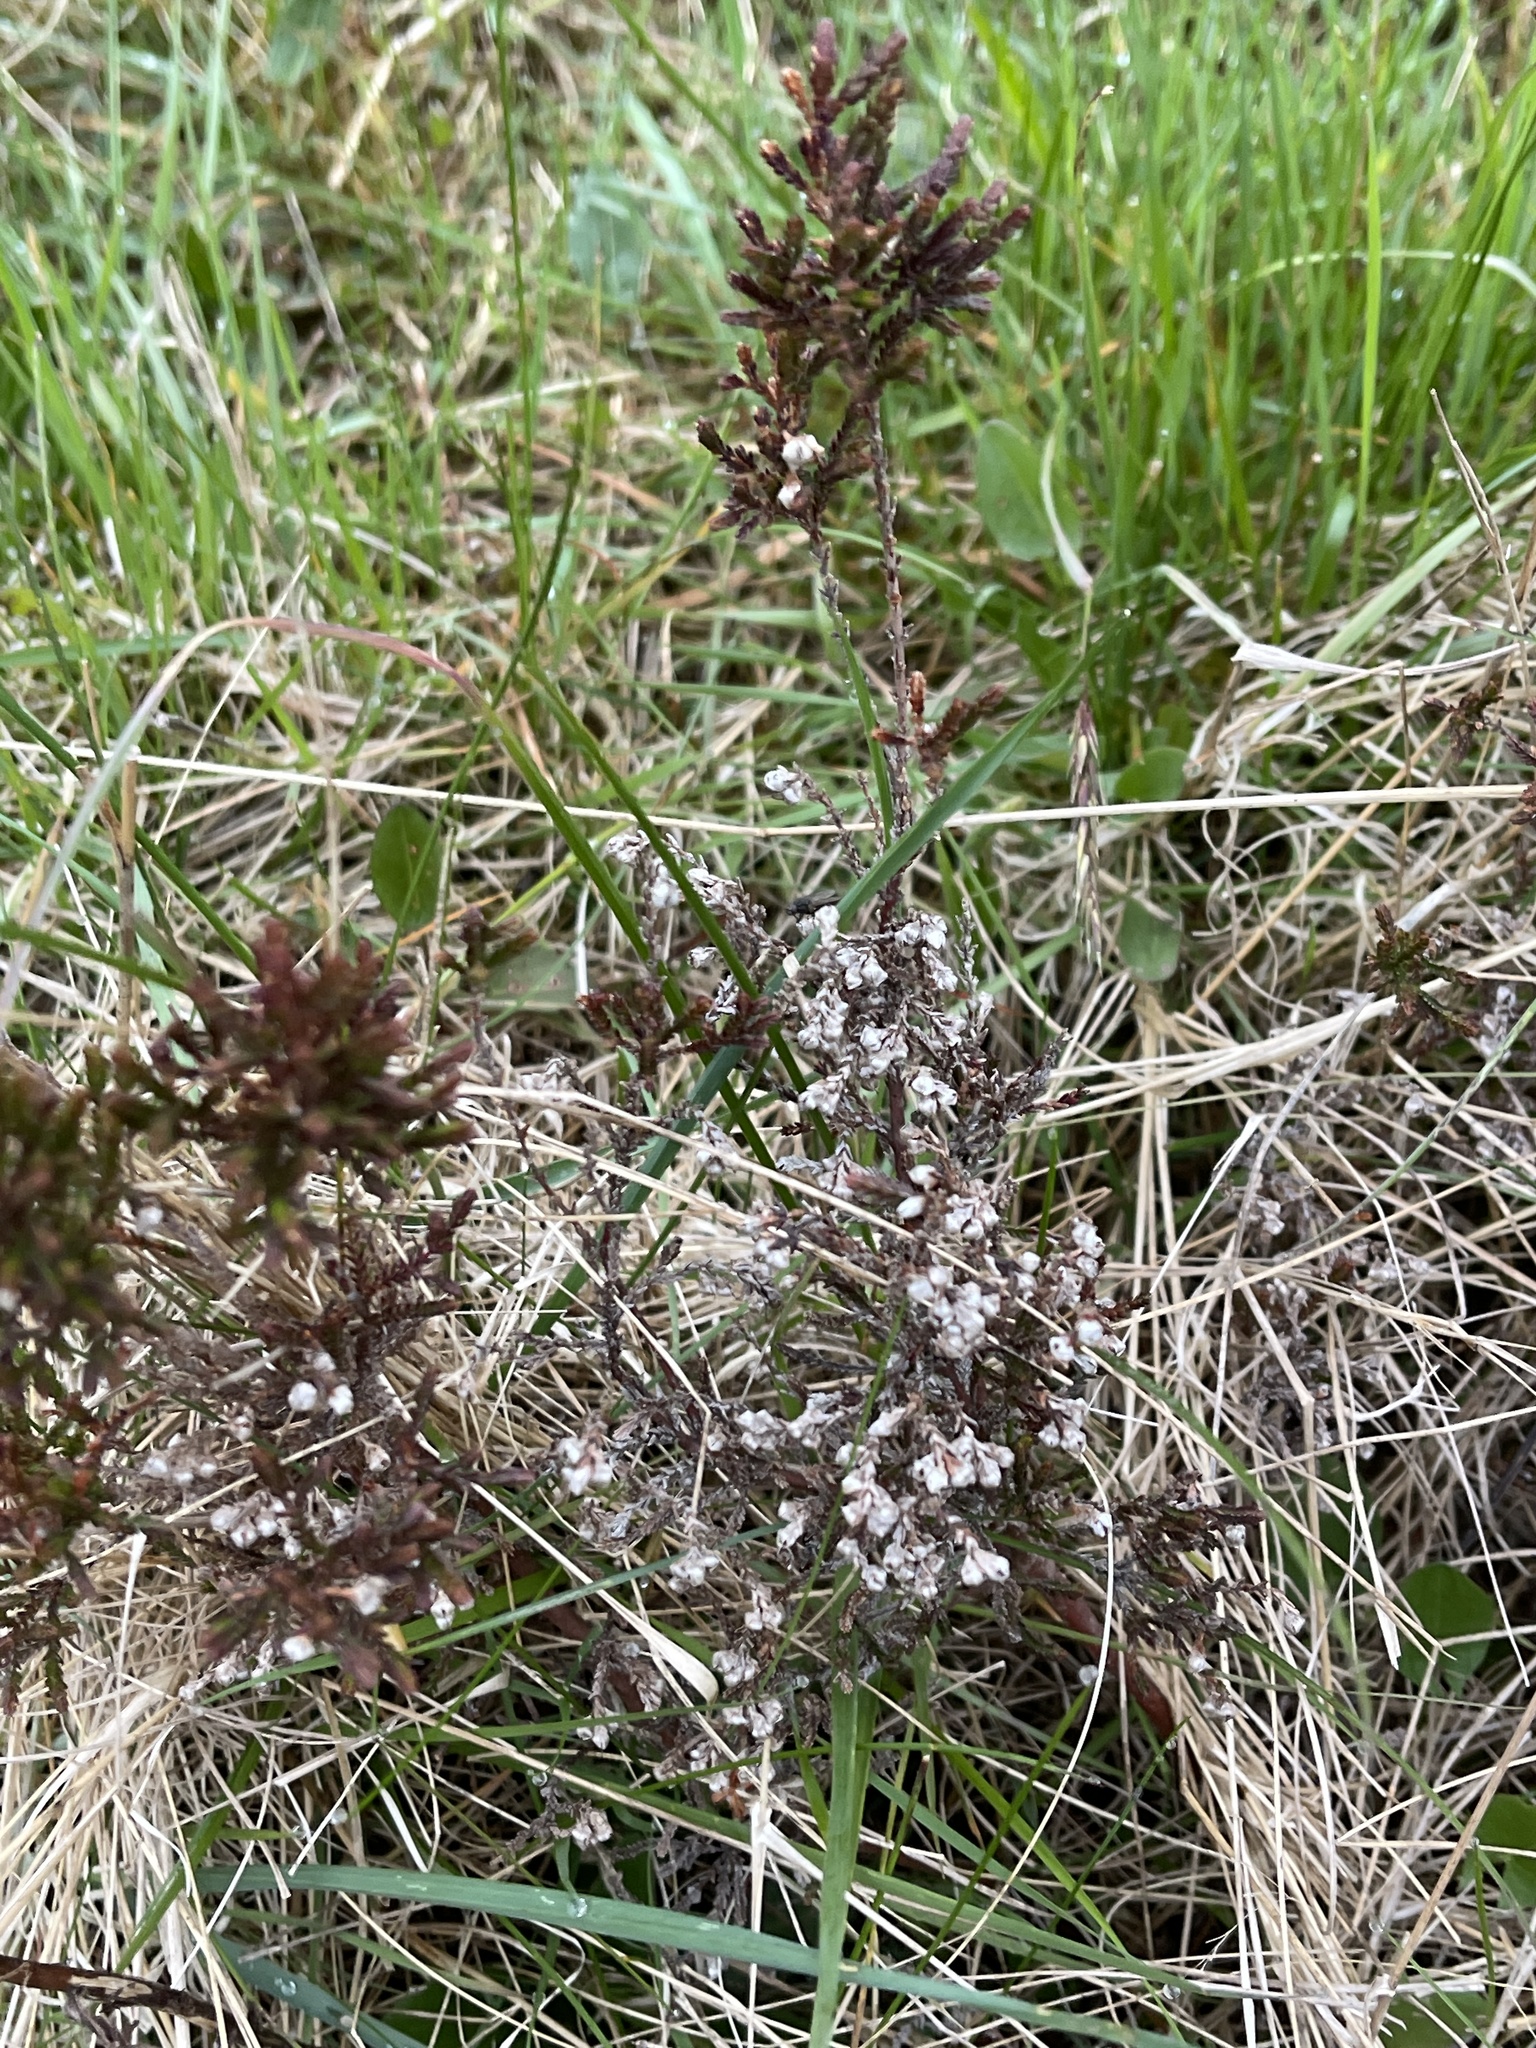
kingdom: Plantae
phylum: Tracheophyta
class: Magnoliopsida
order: Ericales
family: Ericaceae
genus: Calluna
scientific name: Calluna vulgaris
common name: Heather
